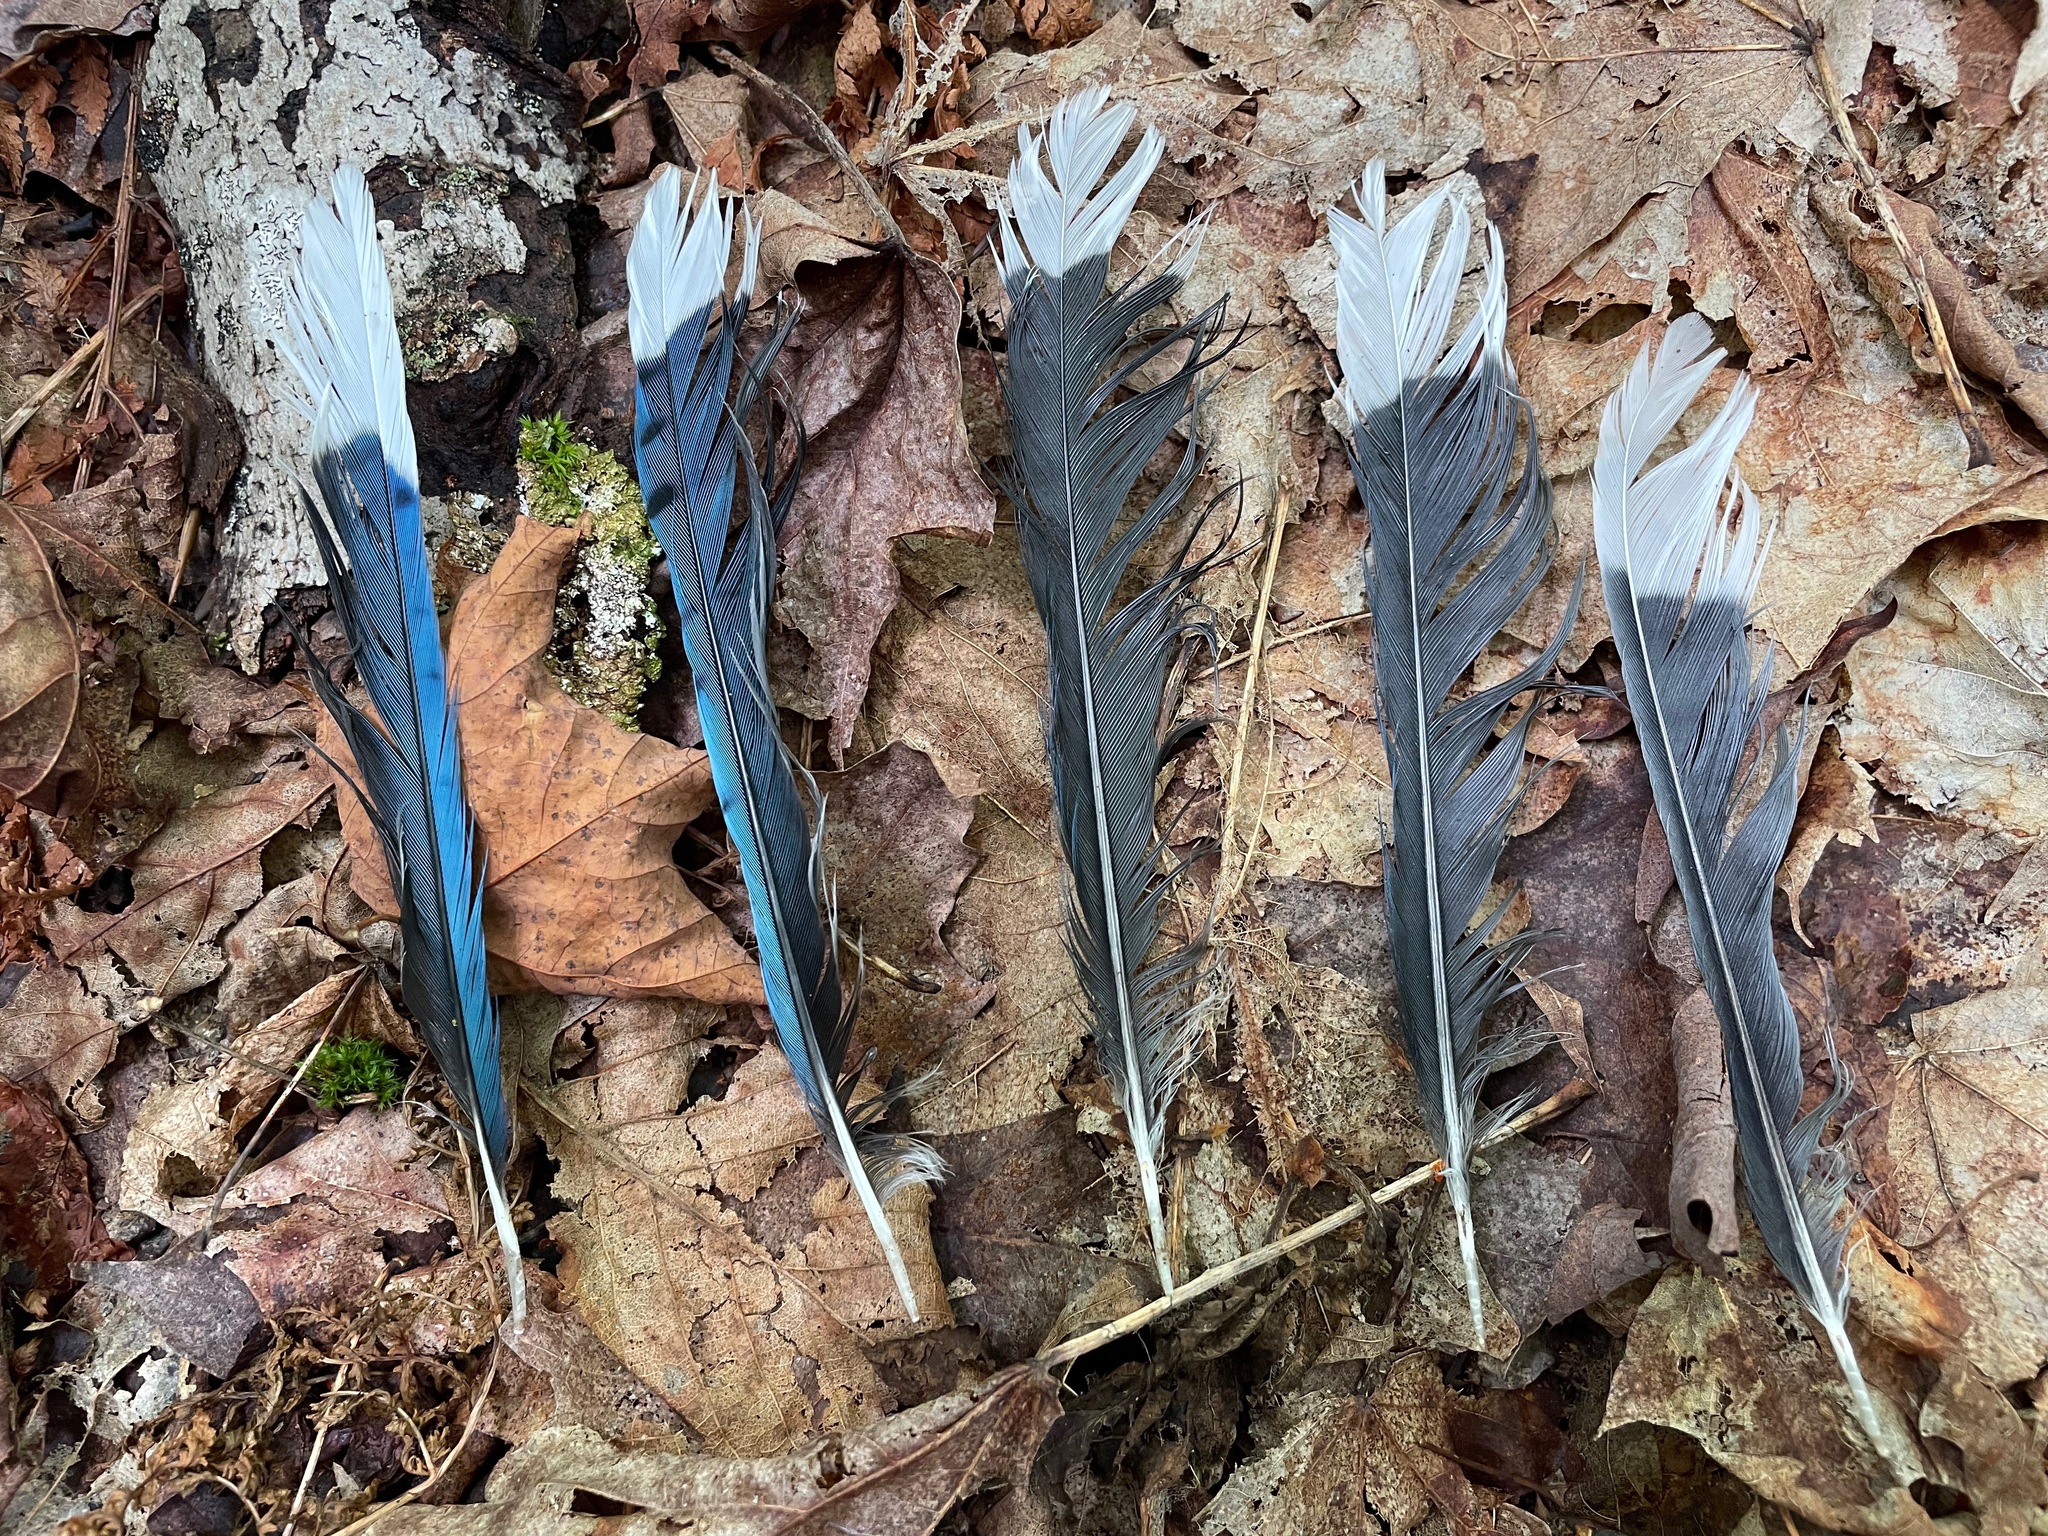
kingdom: Animalia
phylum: Chordata
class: Aves
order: Passeriformes
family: Corvidae
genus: Cyanocitta
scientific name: Cyanocitta cristata
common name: Blue jay
